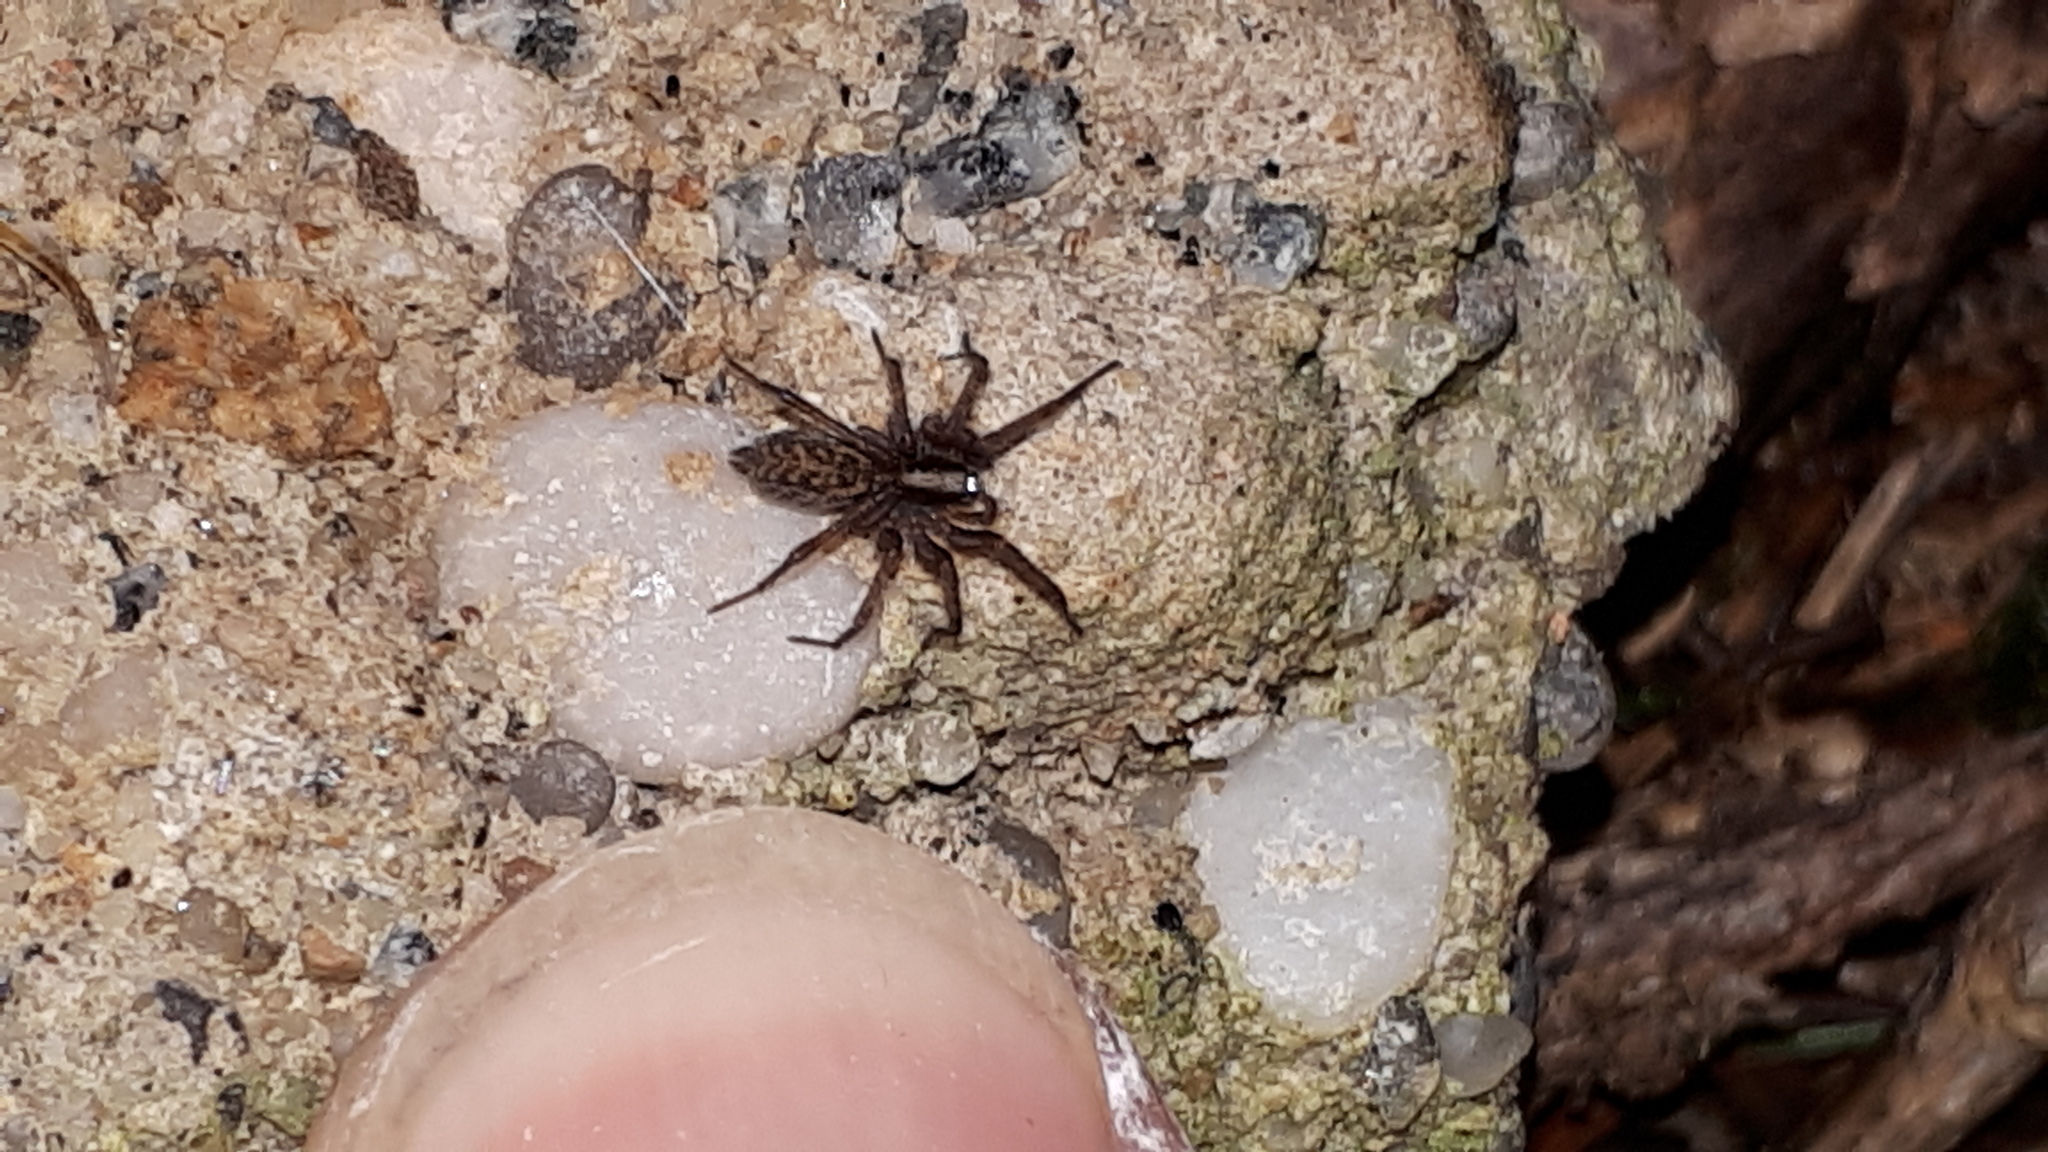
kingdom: Animalia
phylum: Arthropoda
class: Arachnida
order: Araneae
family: Agelenidae
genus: Histopona
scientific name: Histopona torpida
